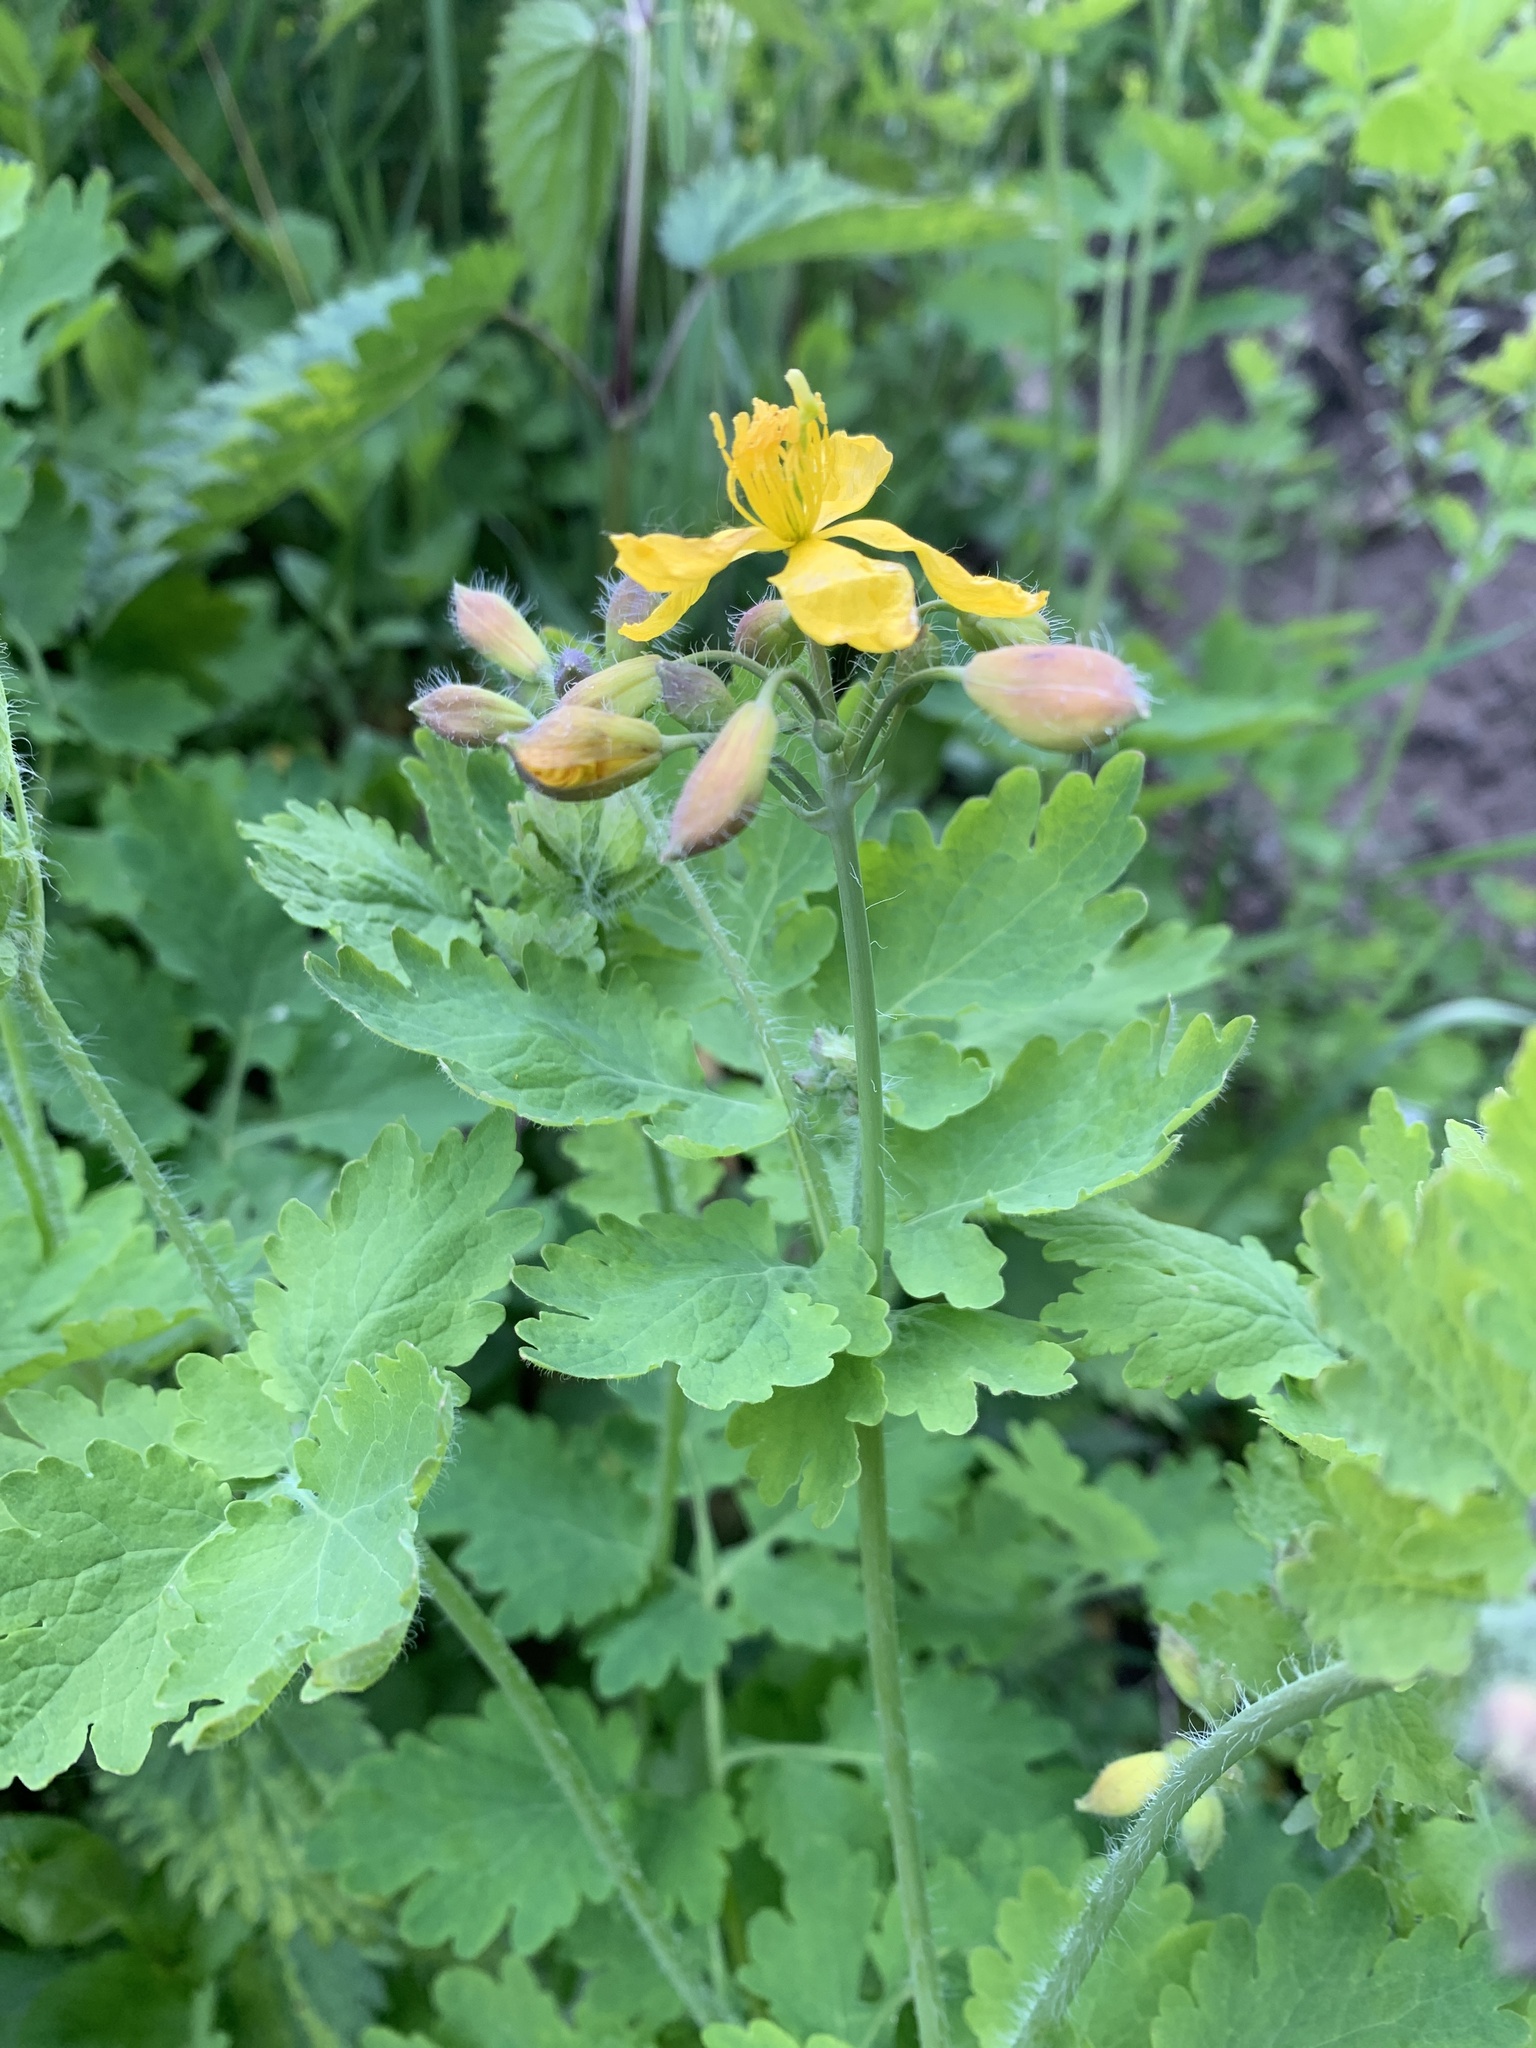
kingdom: Plantae
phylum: Tracheophyta
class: Magnoliopsida
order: Ranunculales
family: Papaveraceae
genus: Chelidonium
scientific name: Chelidonium majus
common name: Greater celandine
